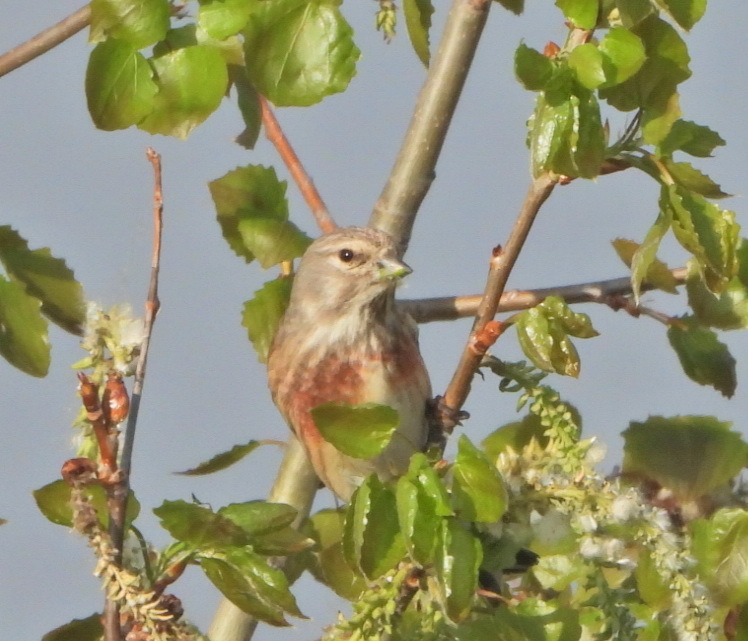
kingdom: Animalia
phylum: Chordata
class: Aves
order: Passeriformes
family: Fringillidae
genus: Linaria
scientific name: Linaria cannabina
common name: Common linnet
